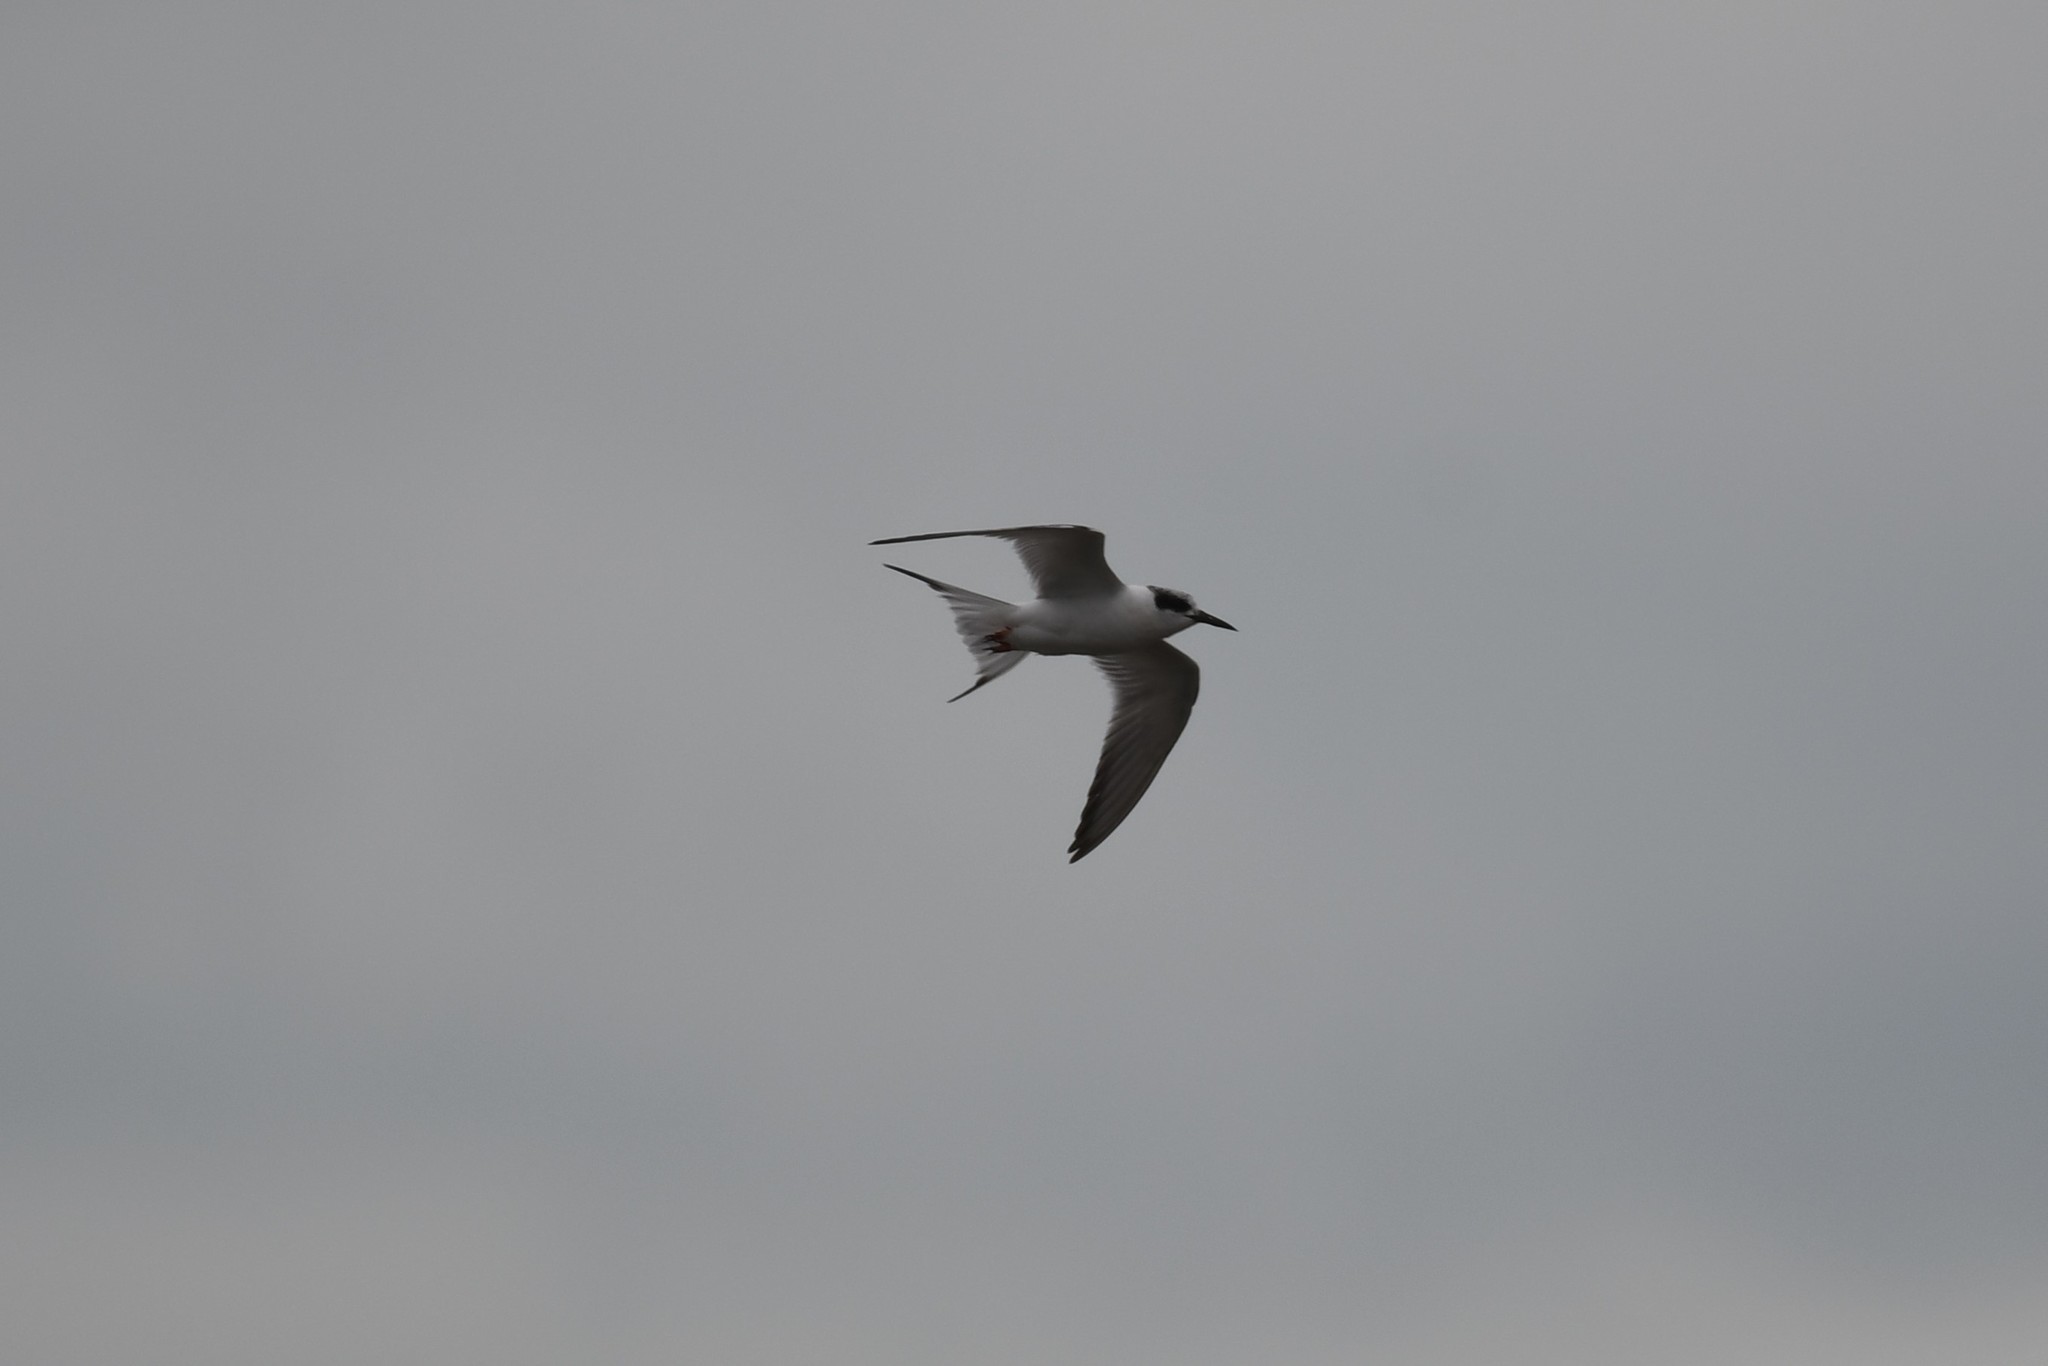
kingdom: Animalia
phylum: Chordata
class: Aves
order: Charadriiformes
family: Laridae
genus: Sterna
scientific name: Sterna forsteri
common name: Forster's tern
